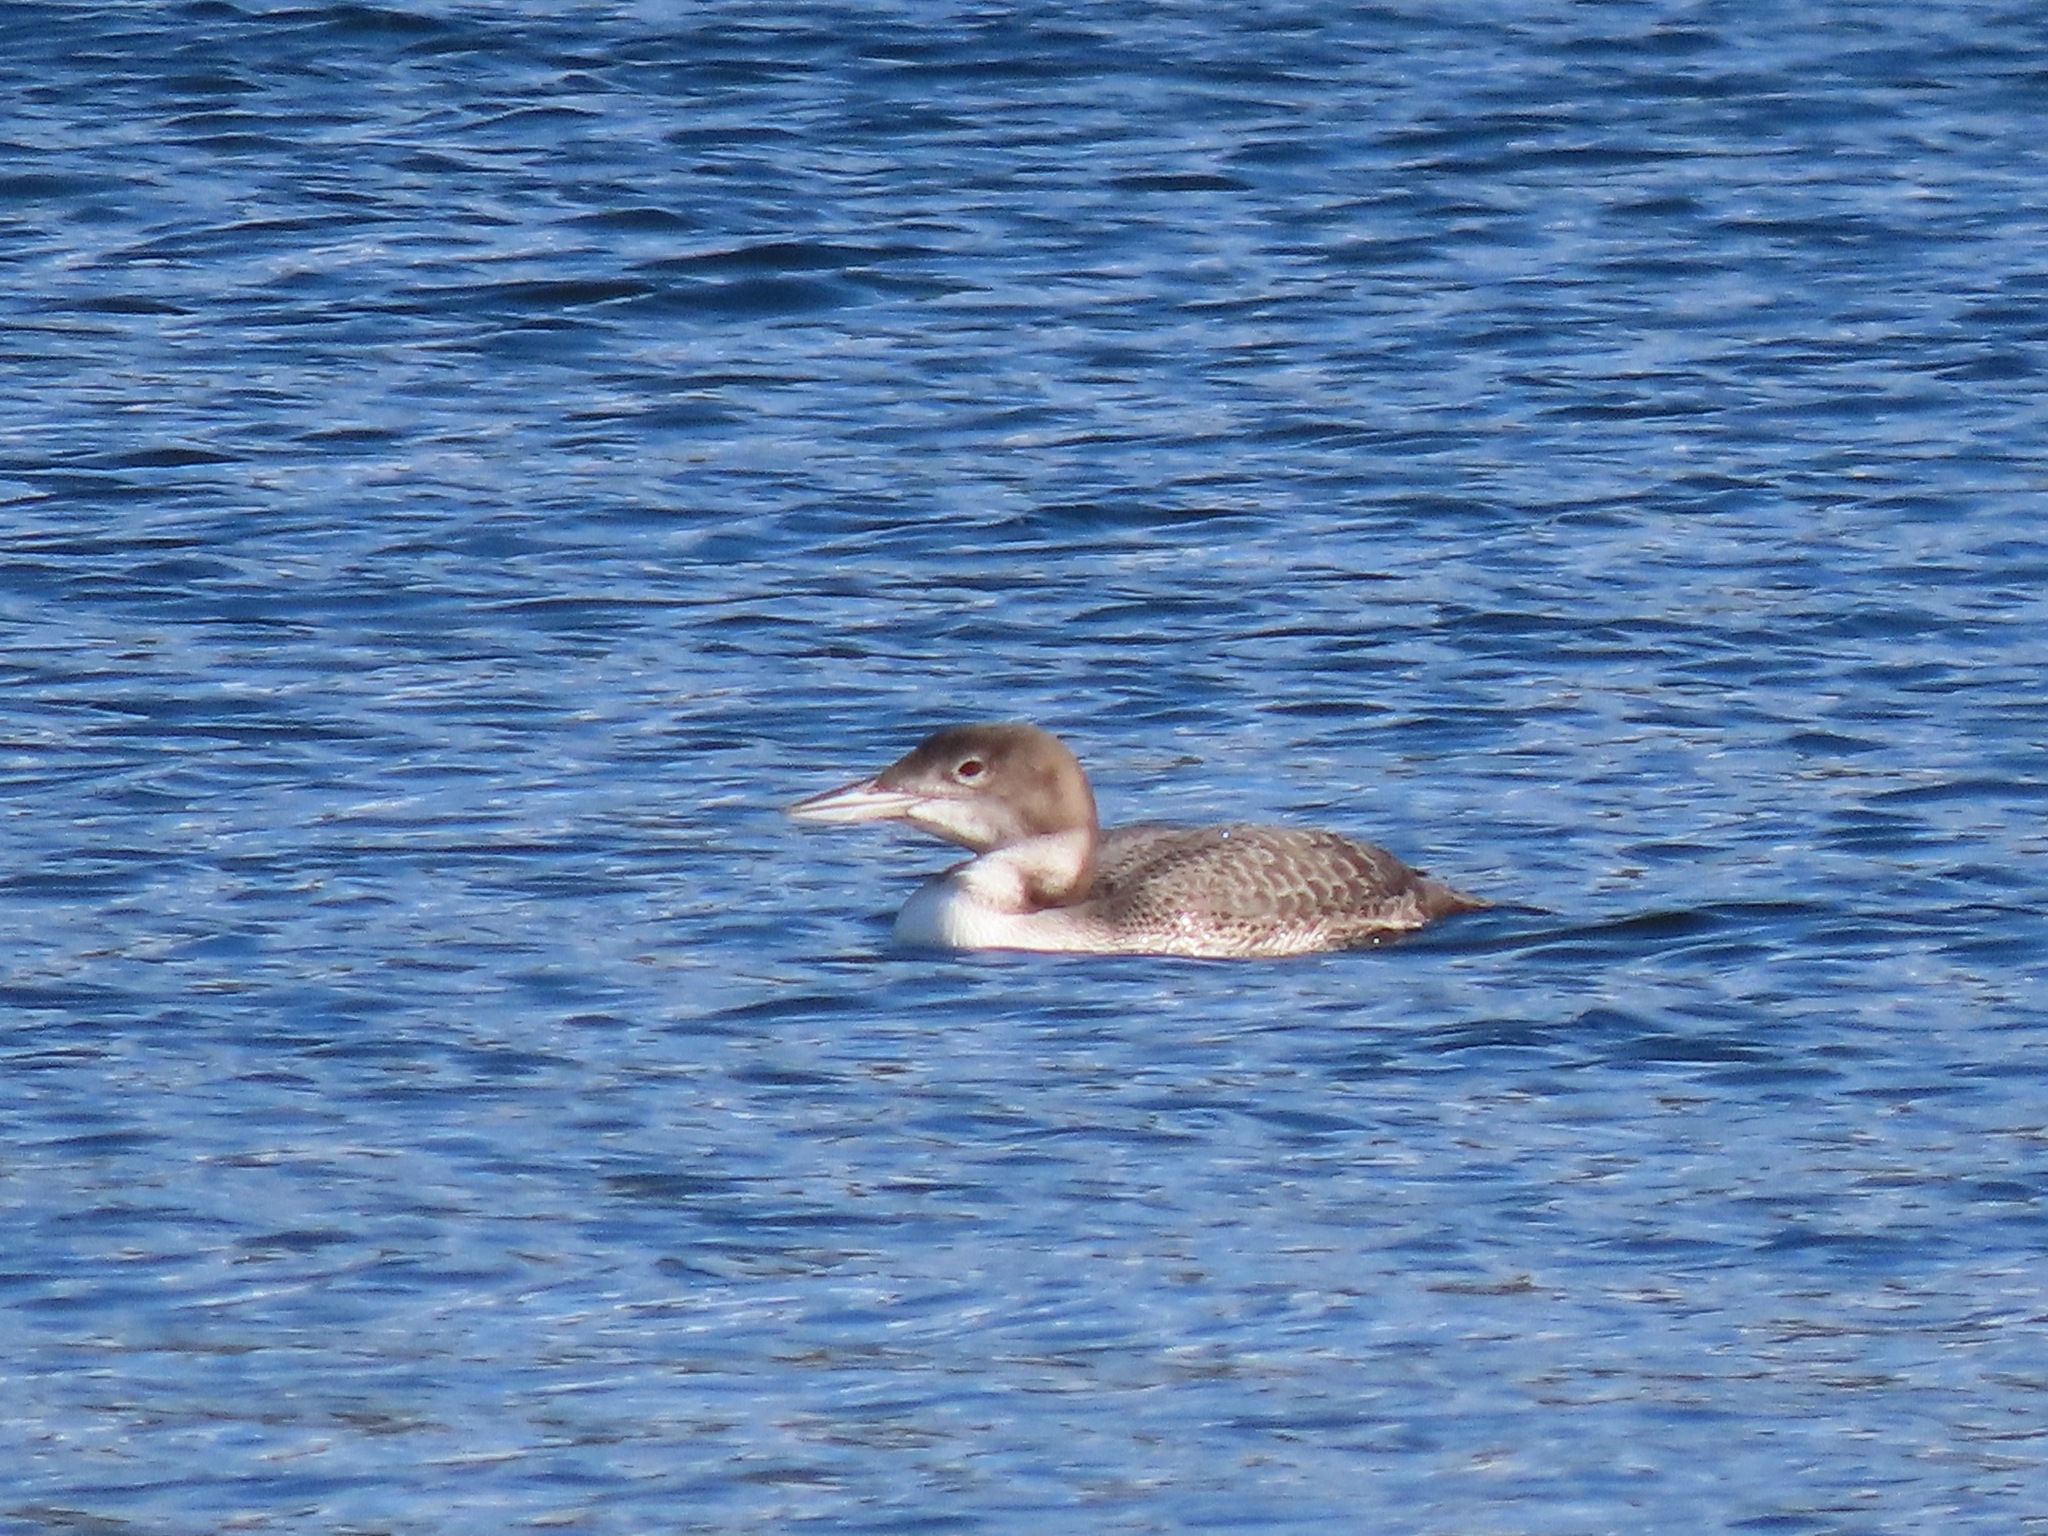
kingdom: Animalia
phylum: Chordata
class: Aves
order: Gaviiformes
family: Gaviidae
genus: Gavia
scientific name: Gavia immer
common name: Common loon
